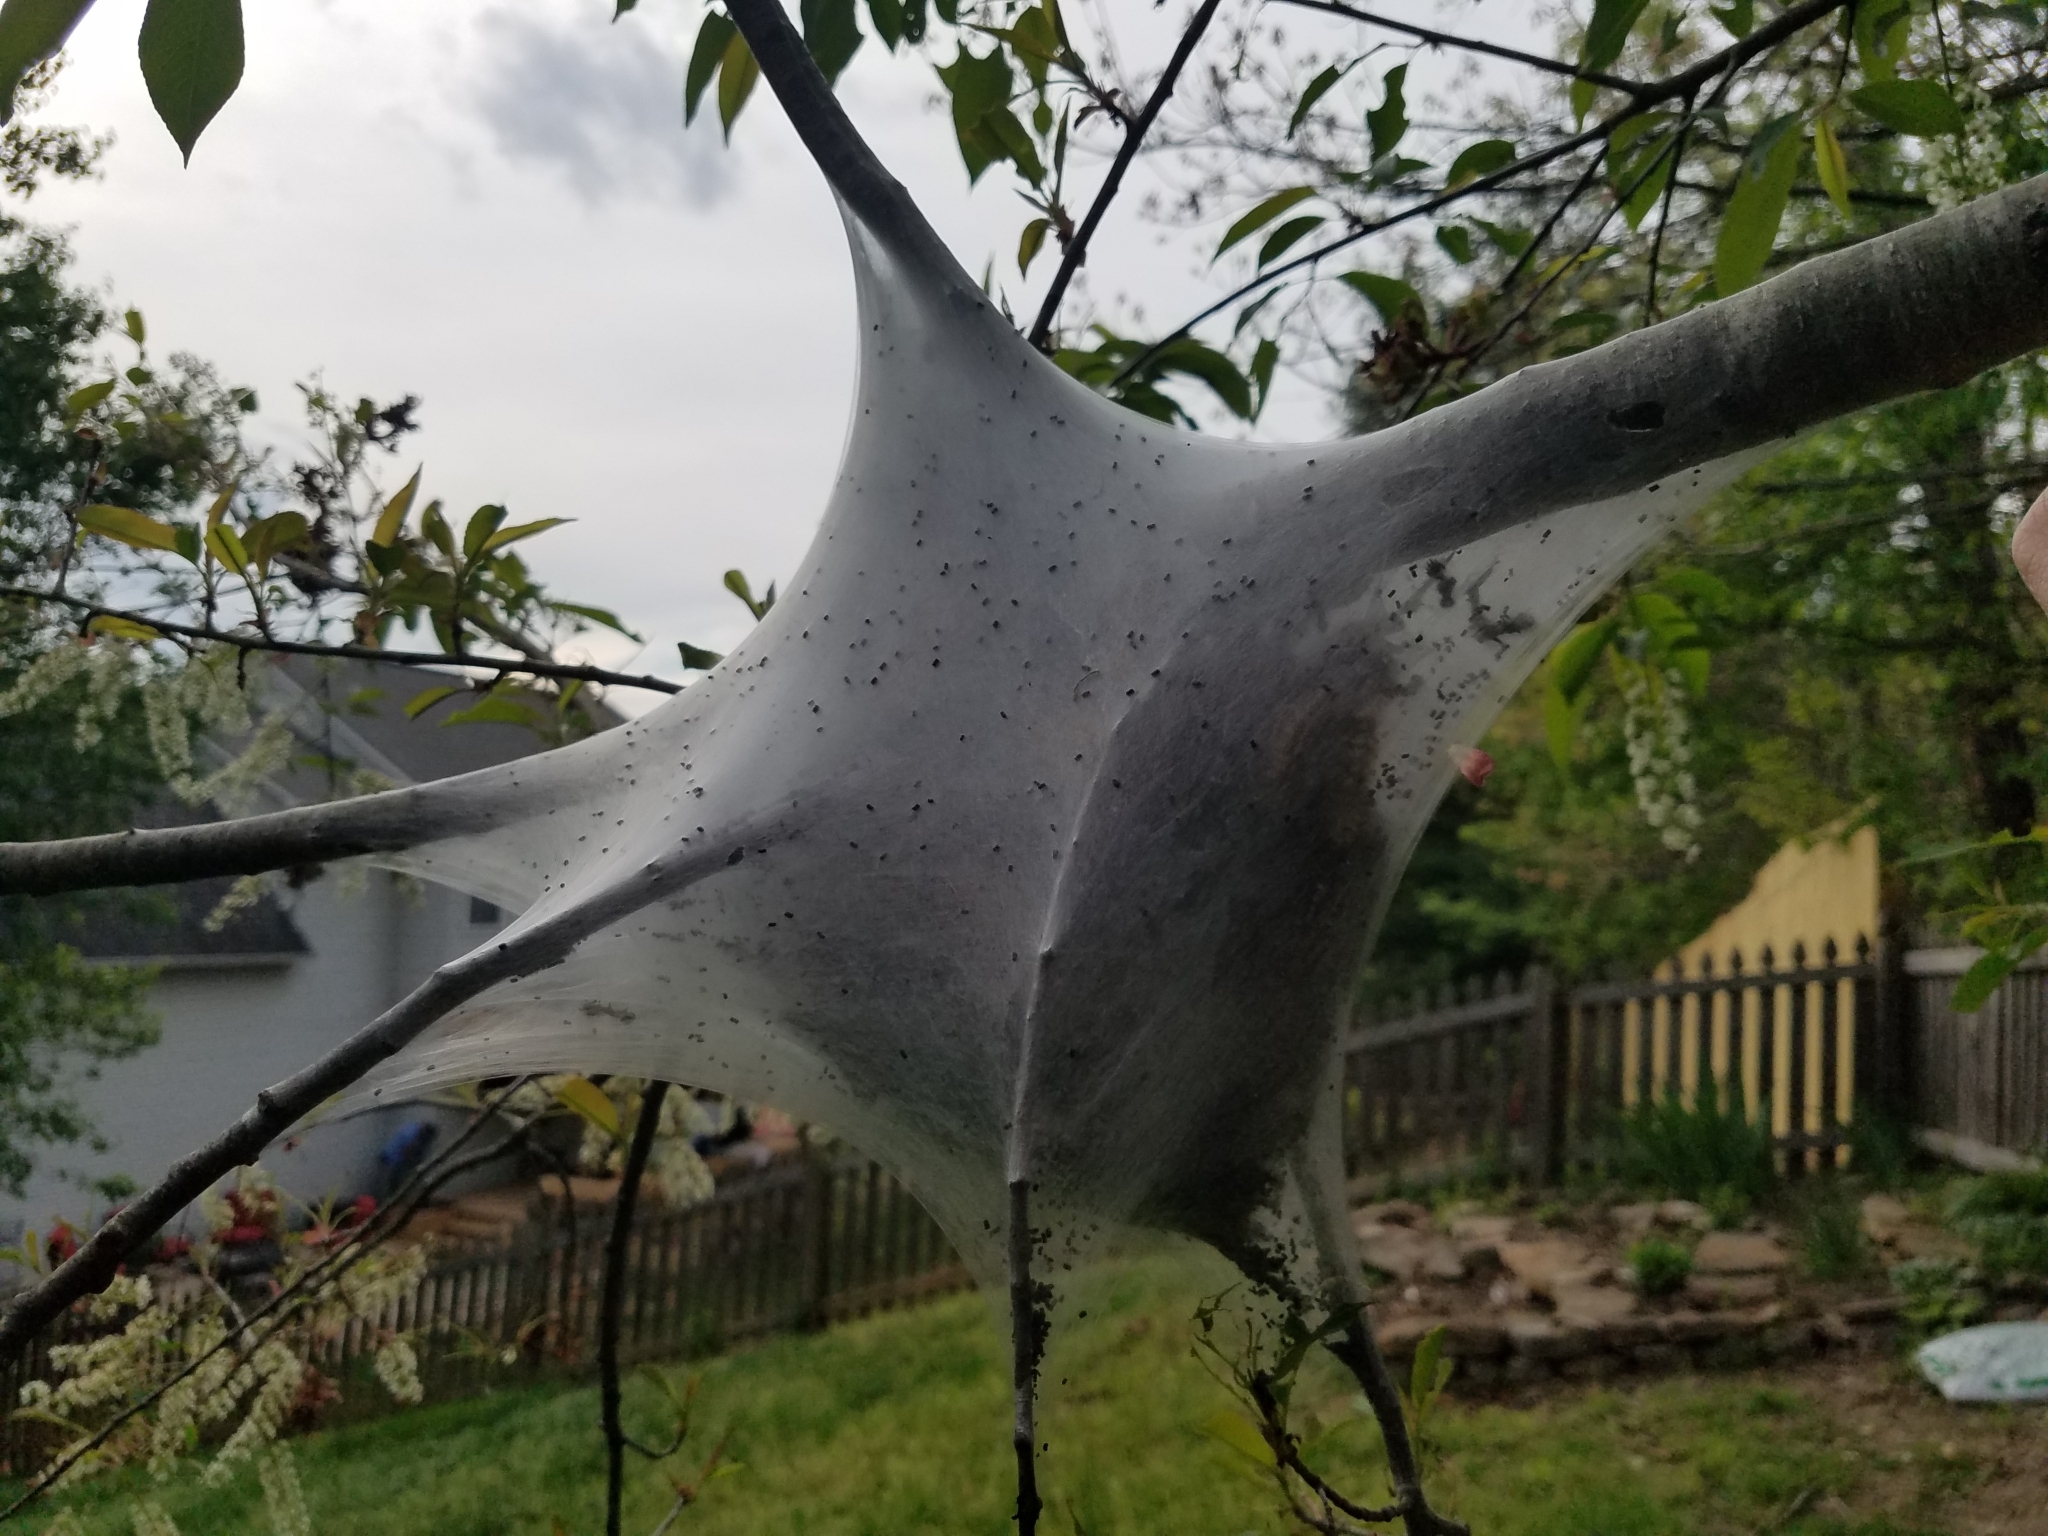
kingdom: Animalia
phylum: Arthropoda
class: Insecta
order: Lepidoptera
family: Lasiocampidae
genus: Malacosoma
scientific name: Malacosoma americana
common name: Eastern tent caterpillar moth
